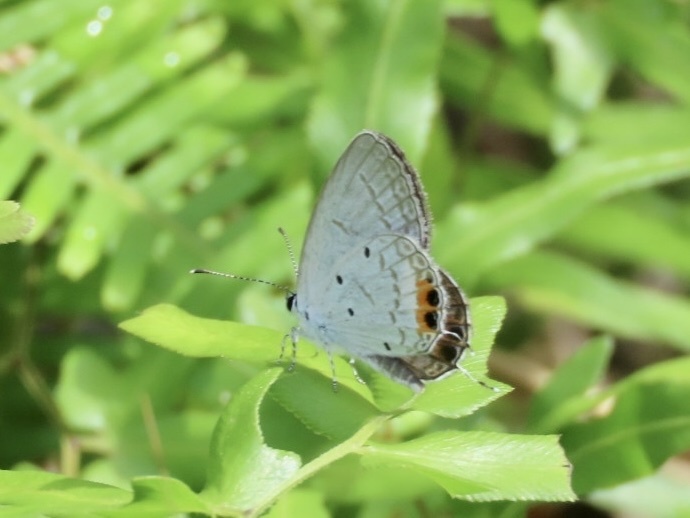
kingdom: Animalia
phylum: Arthropoda
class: Insecta
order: Lepidoptera
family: Lycaenidae
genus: Everes
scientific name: Everes lacturnus
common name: Orange-tipped pea-blue
